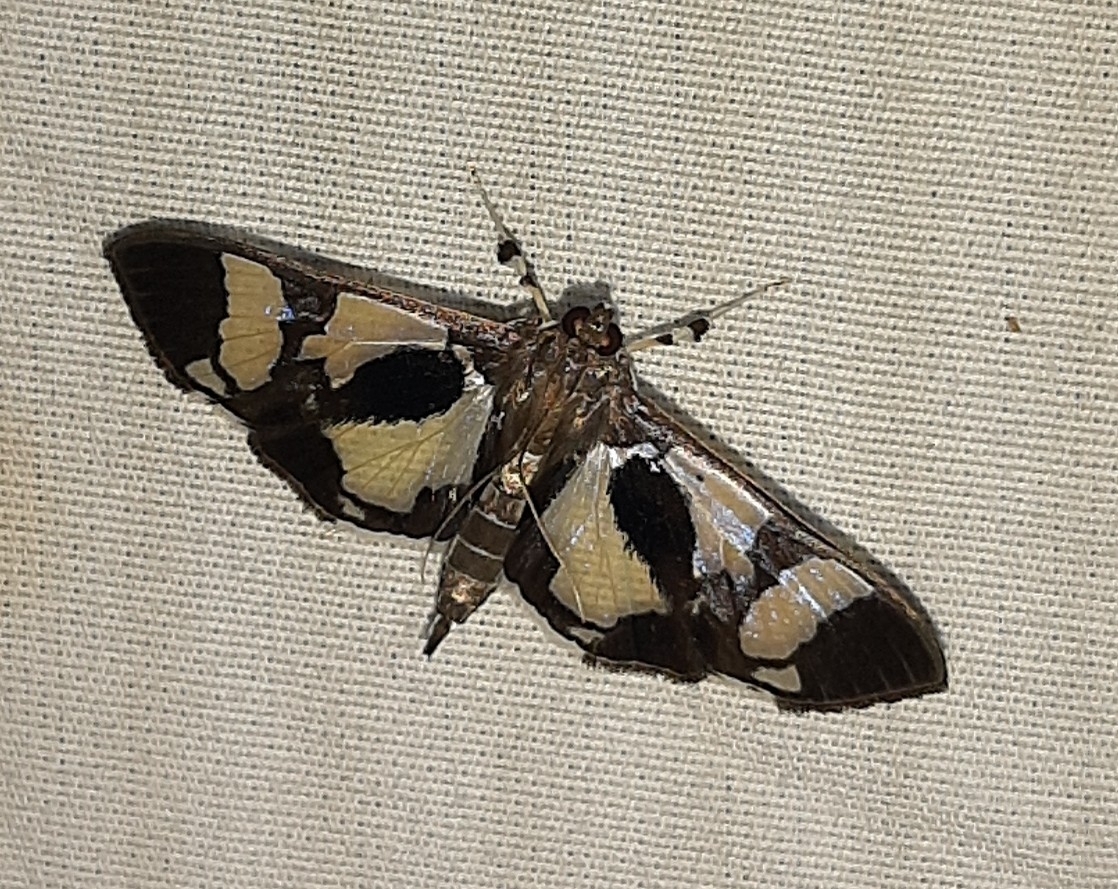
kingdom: Animalia
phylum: Arthropoda
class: Insecta
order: Lepidoptera
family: Crambidae
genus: Desmia
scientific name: Desmia bajulalis
